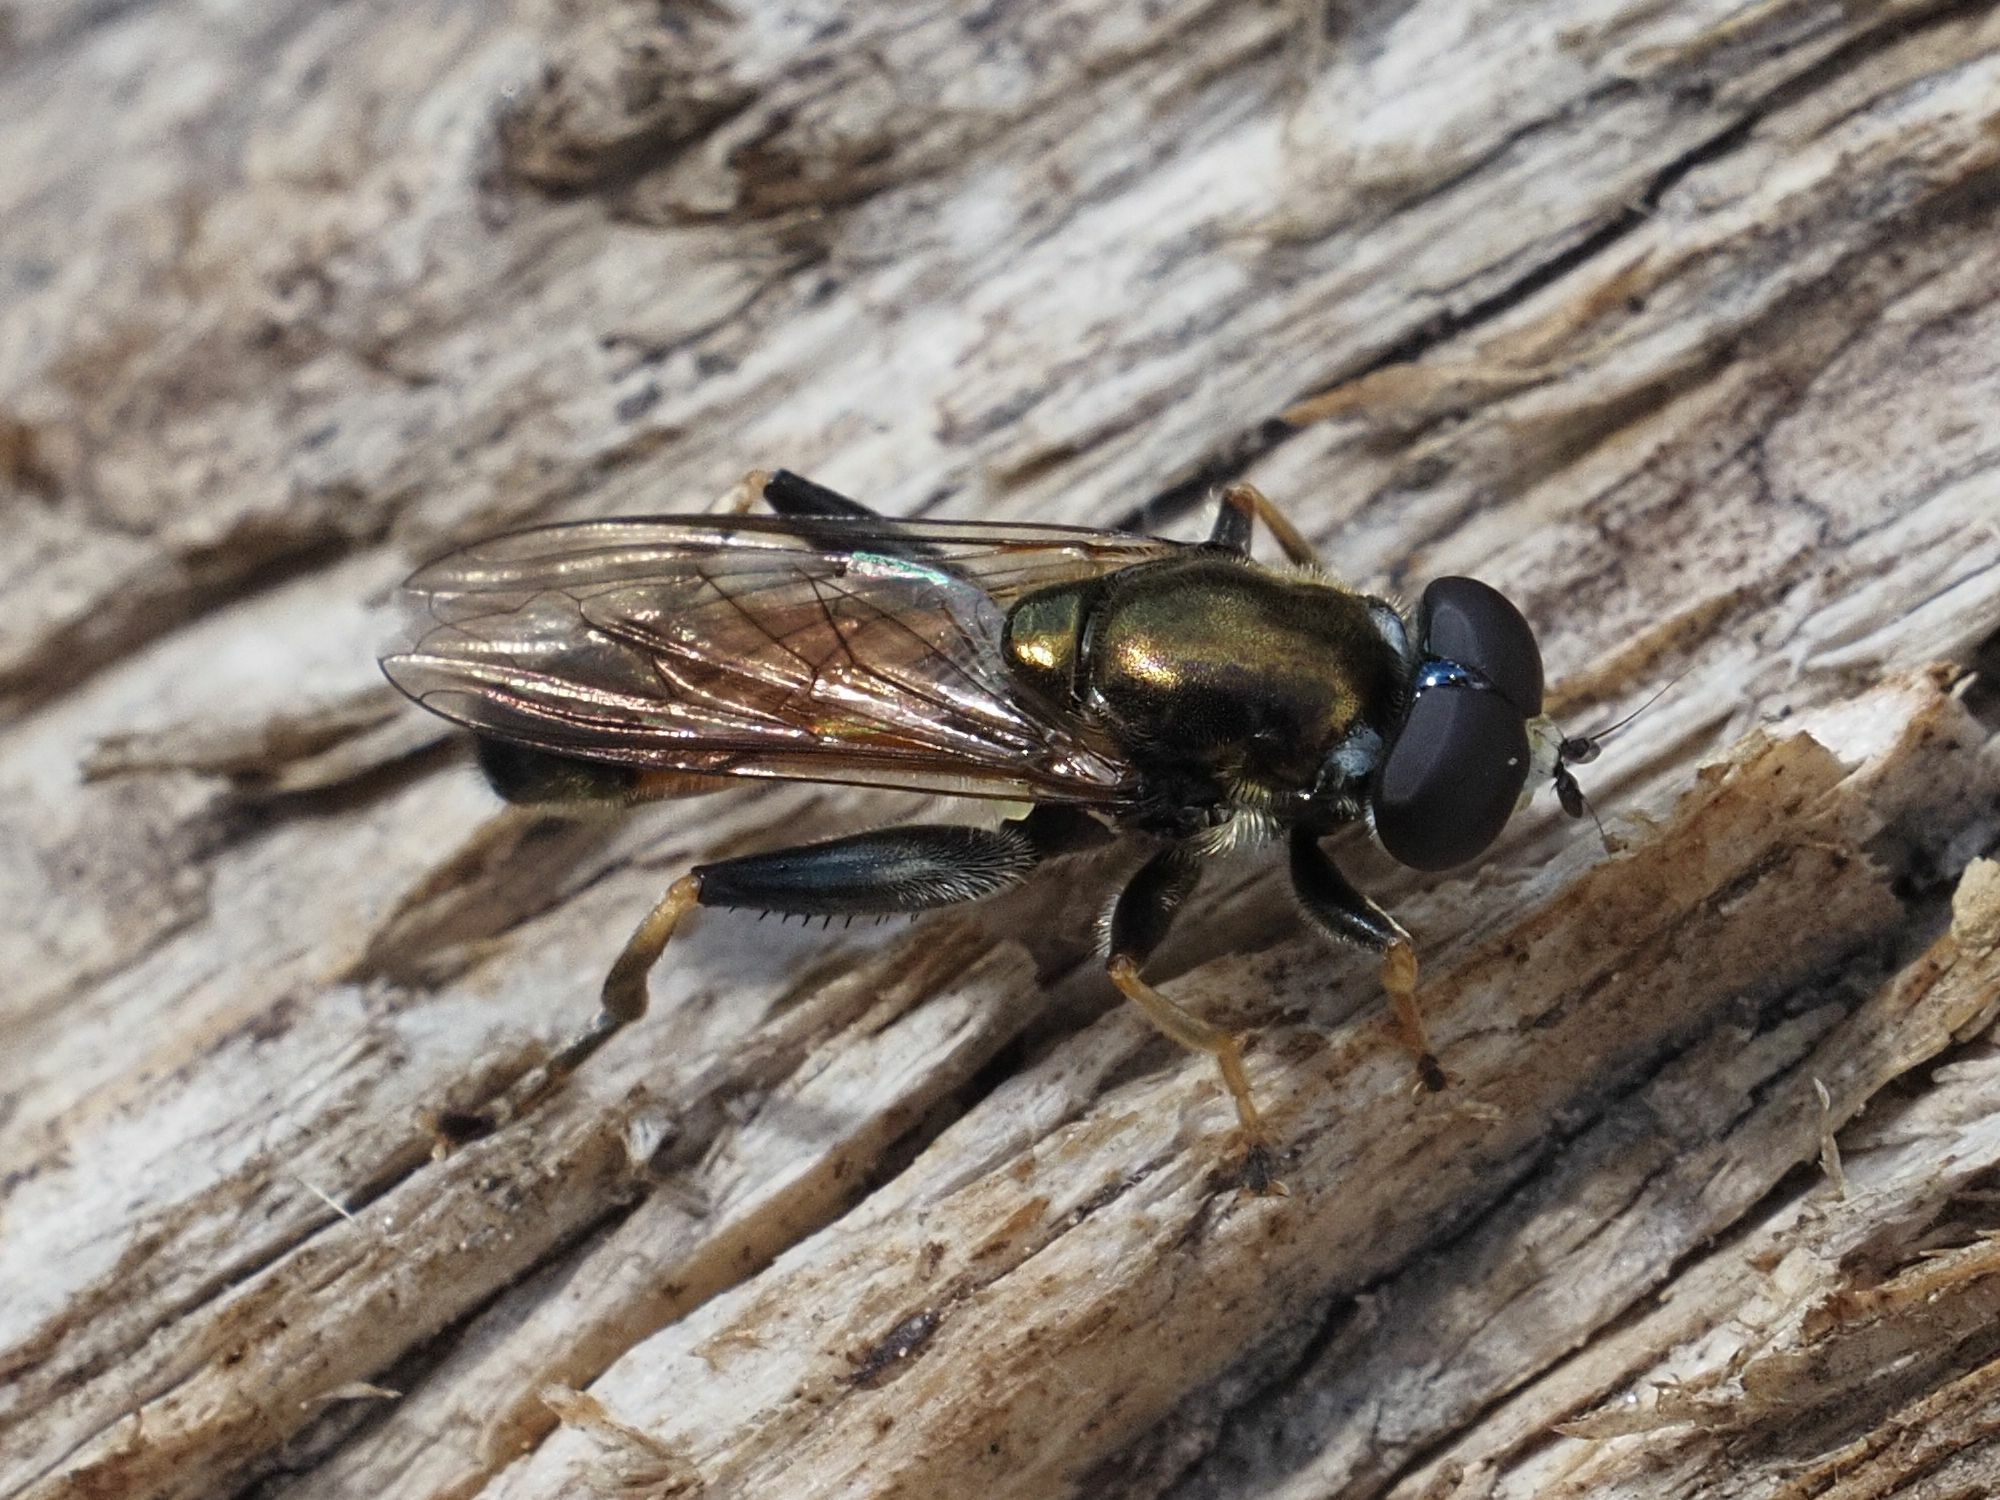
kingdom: Animalia
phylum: Arthropoda
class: Insecta
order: Diptera
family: Syrphidae
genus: Xylota
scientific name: Xylota segnis
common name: Brown-toed forest fly
